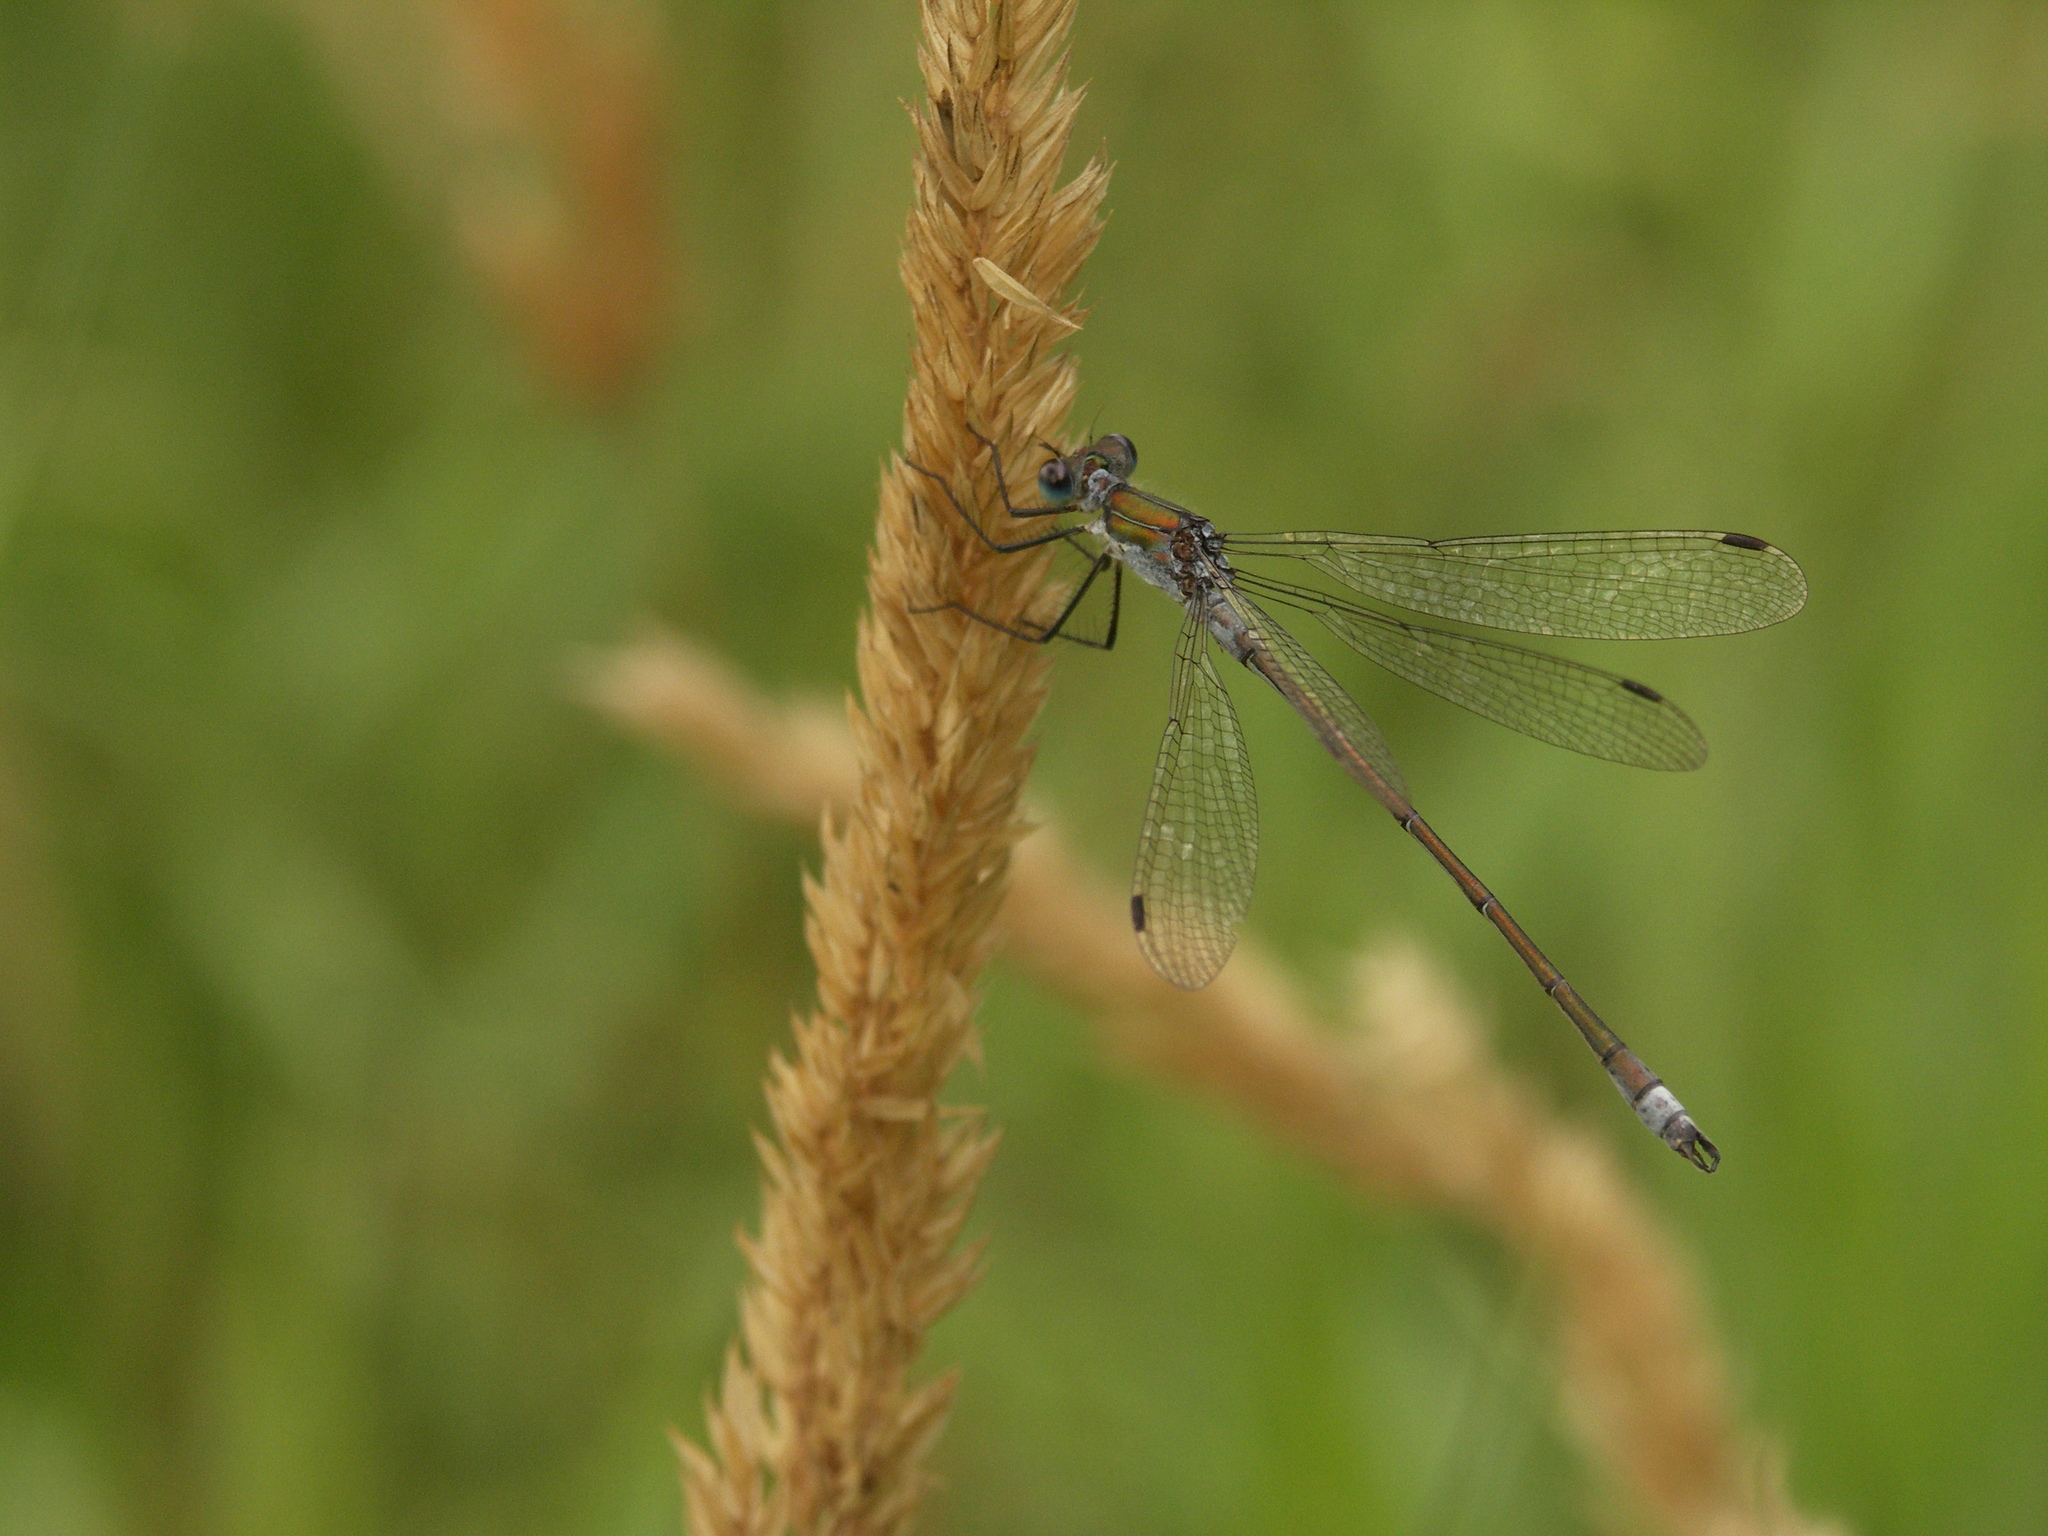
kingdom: Animalia
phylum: Arthropoda
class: Insecta
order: Odonata
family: Lestidae
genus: Lestes
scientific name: Lestes sponsa
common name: Common spreadwing
